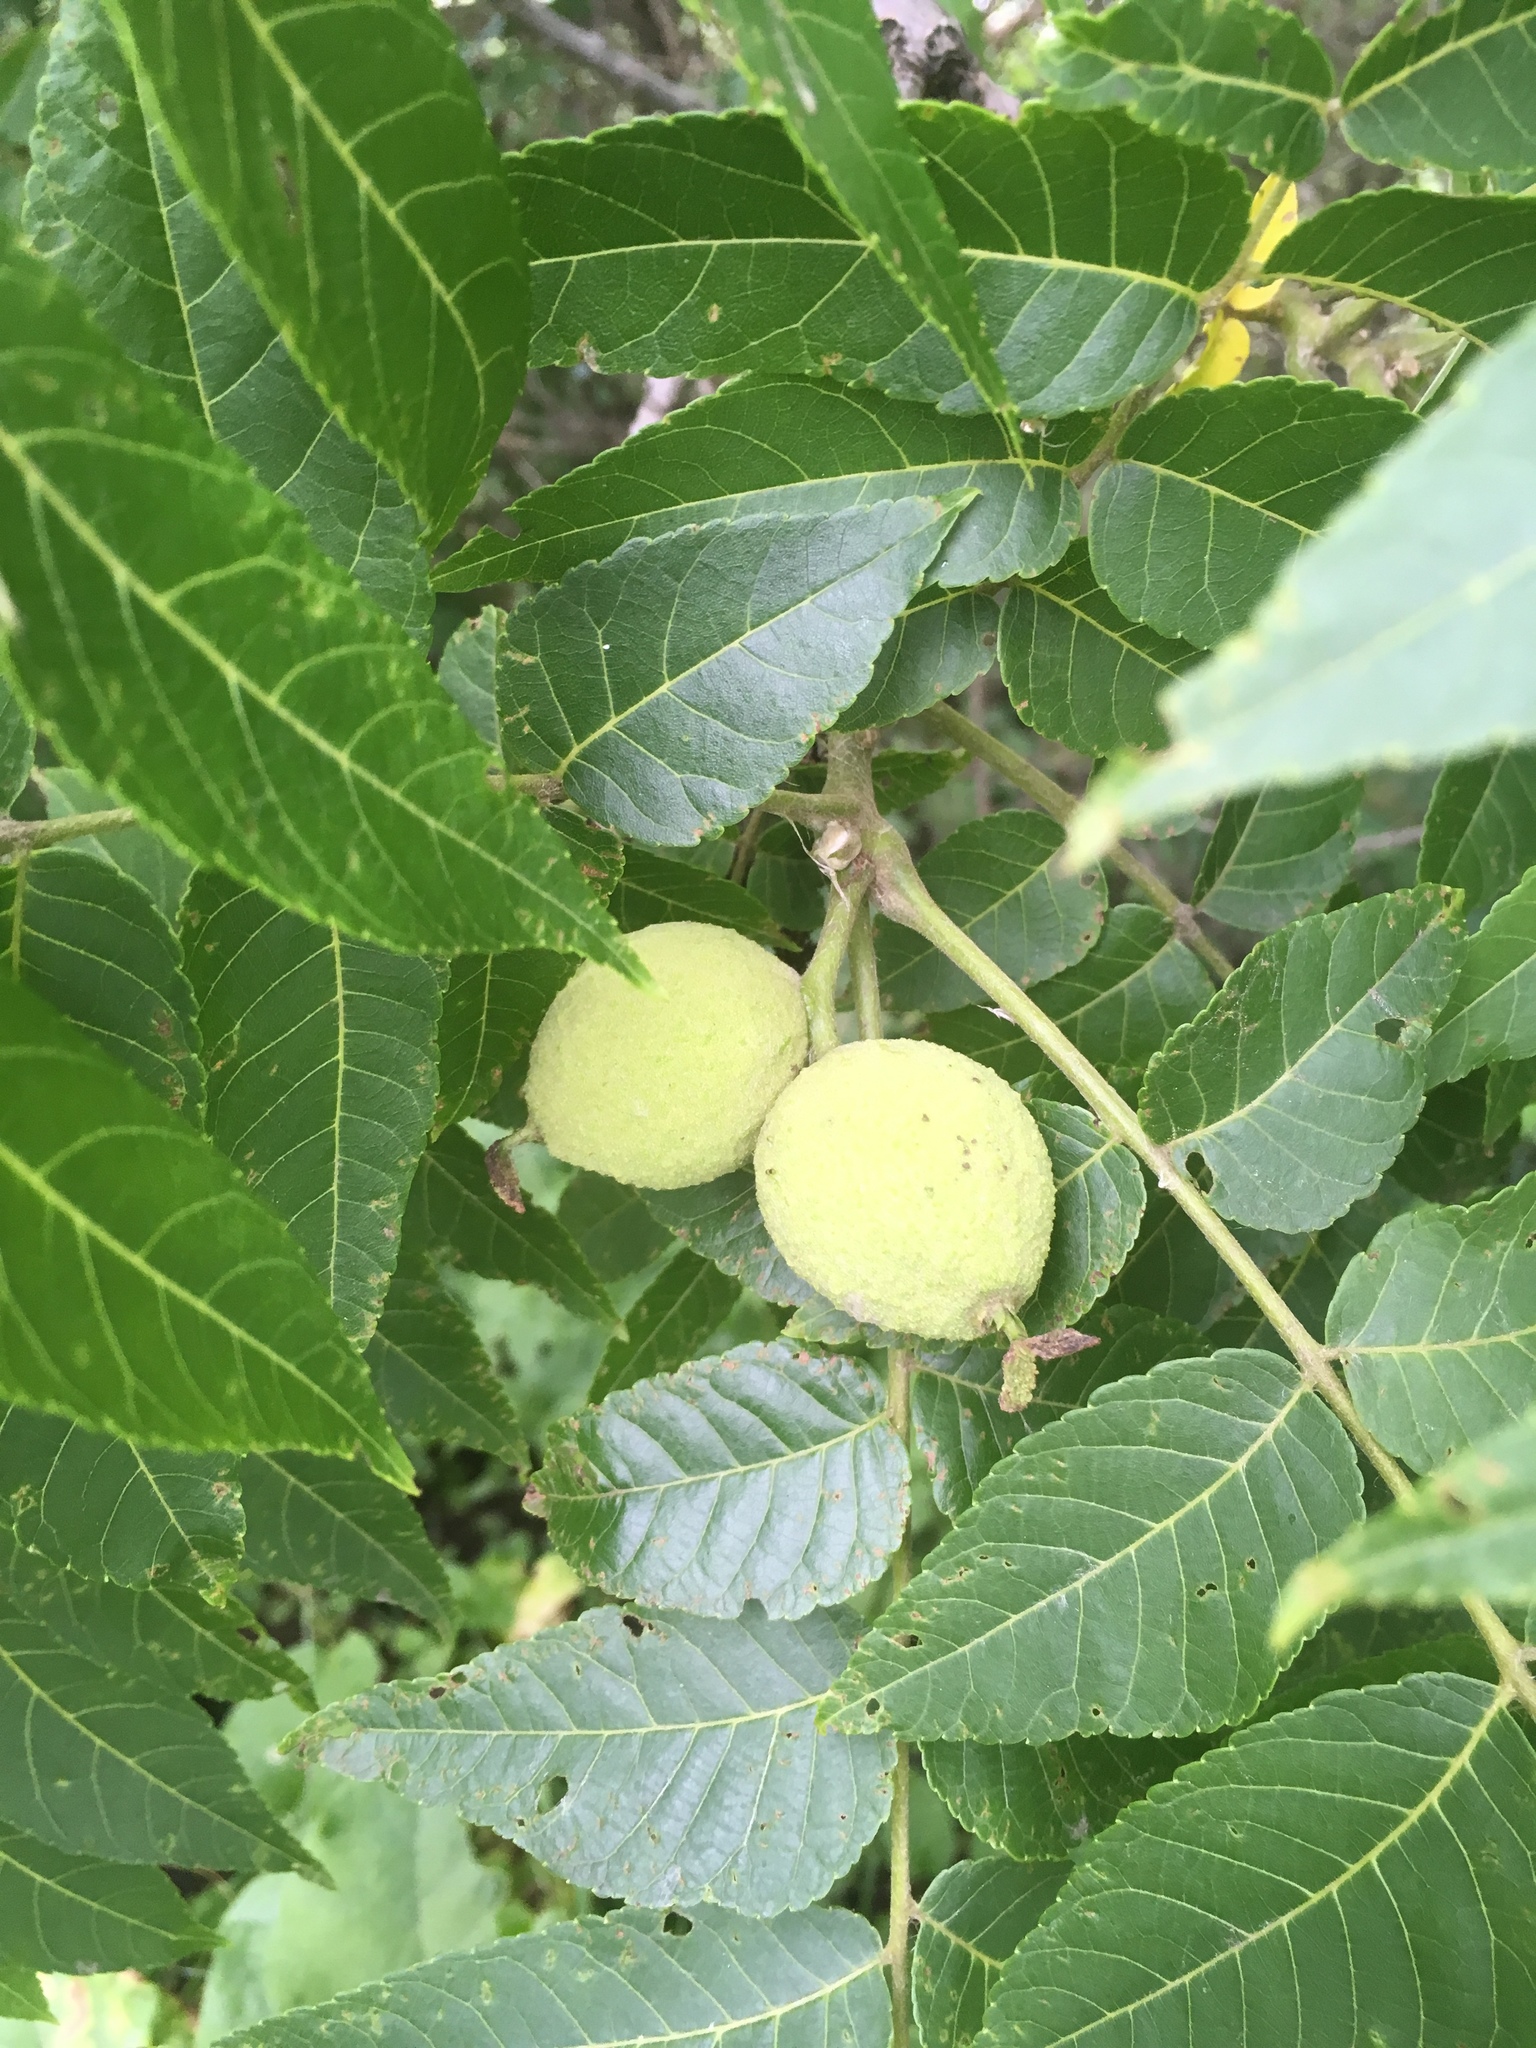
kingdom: Plantae
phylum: Tracheophyta
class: Magnoliopsida
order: Fagales
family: Juglandaceae
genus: Juglans
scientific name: Juglans nigra
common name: Black walnut
